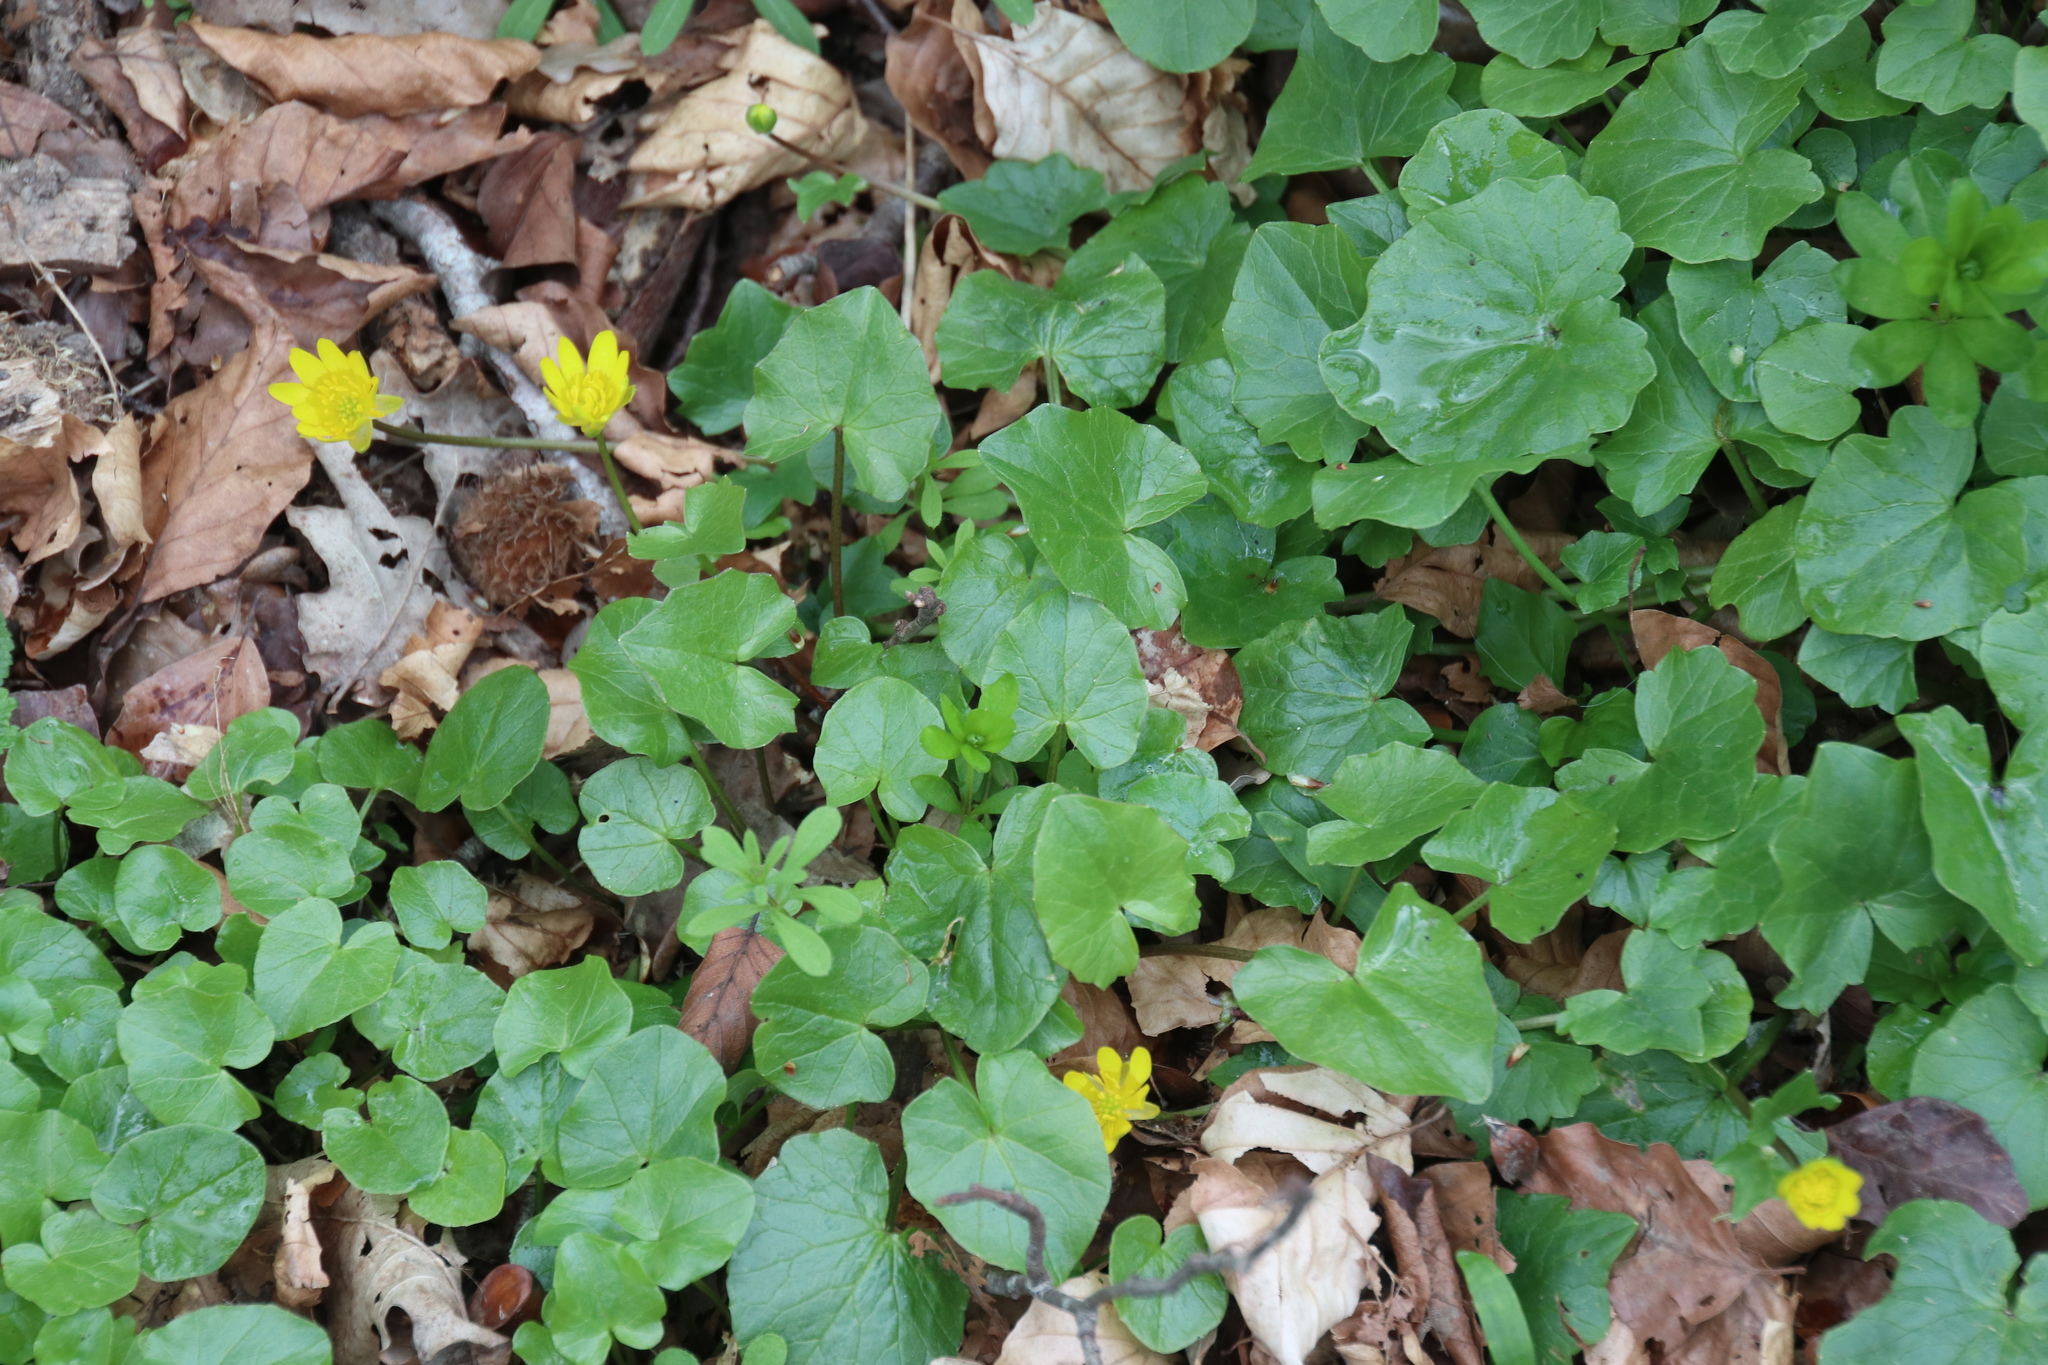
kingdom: Plantae
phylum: Tracheophyta
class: Magnoliopsida
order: Ranunculales
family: Ranunculaceae
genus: Ficaria
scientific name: Ficaria verna
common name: Lesser celandine
